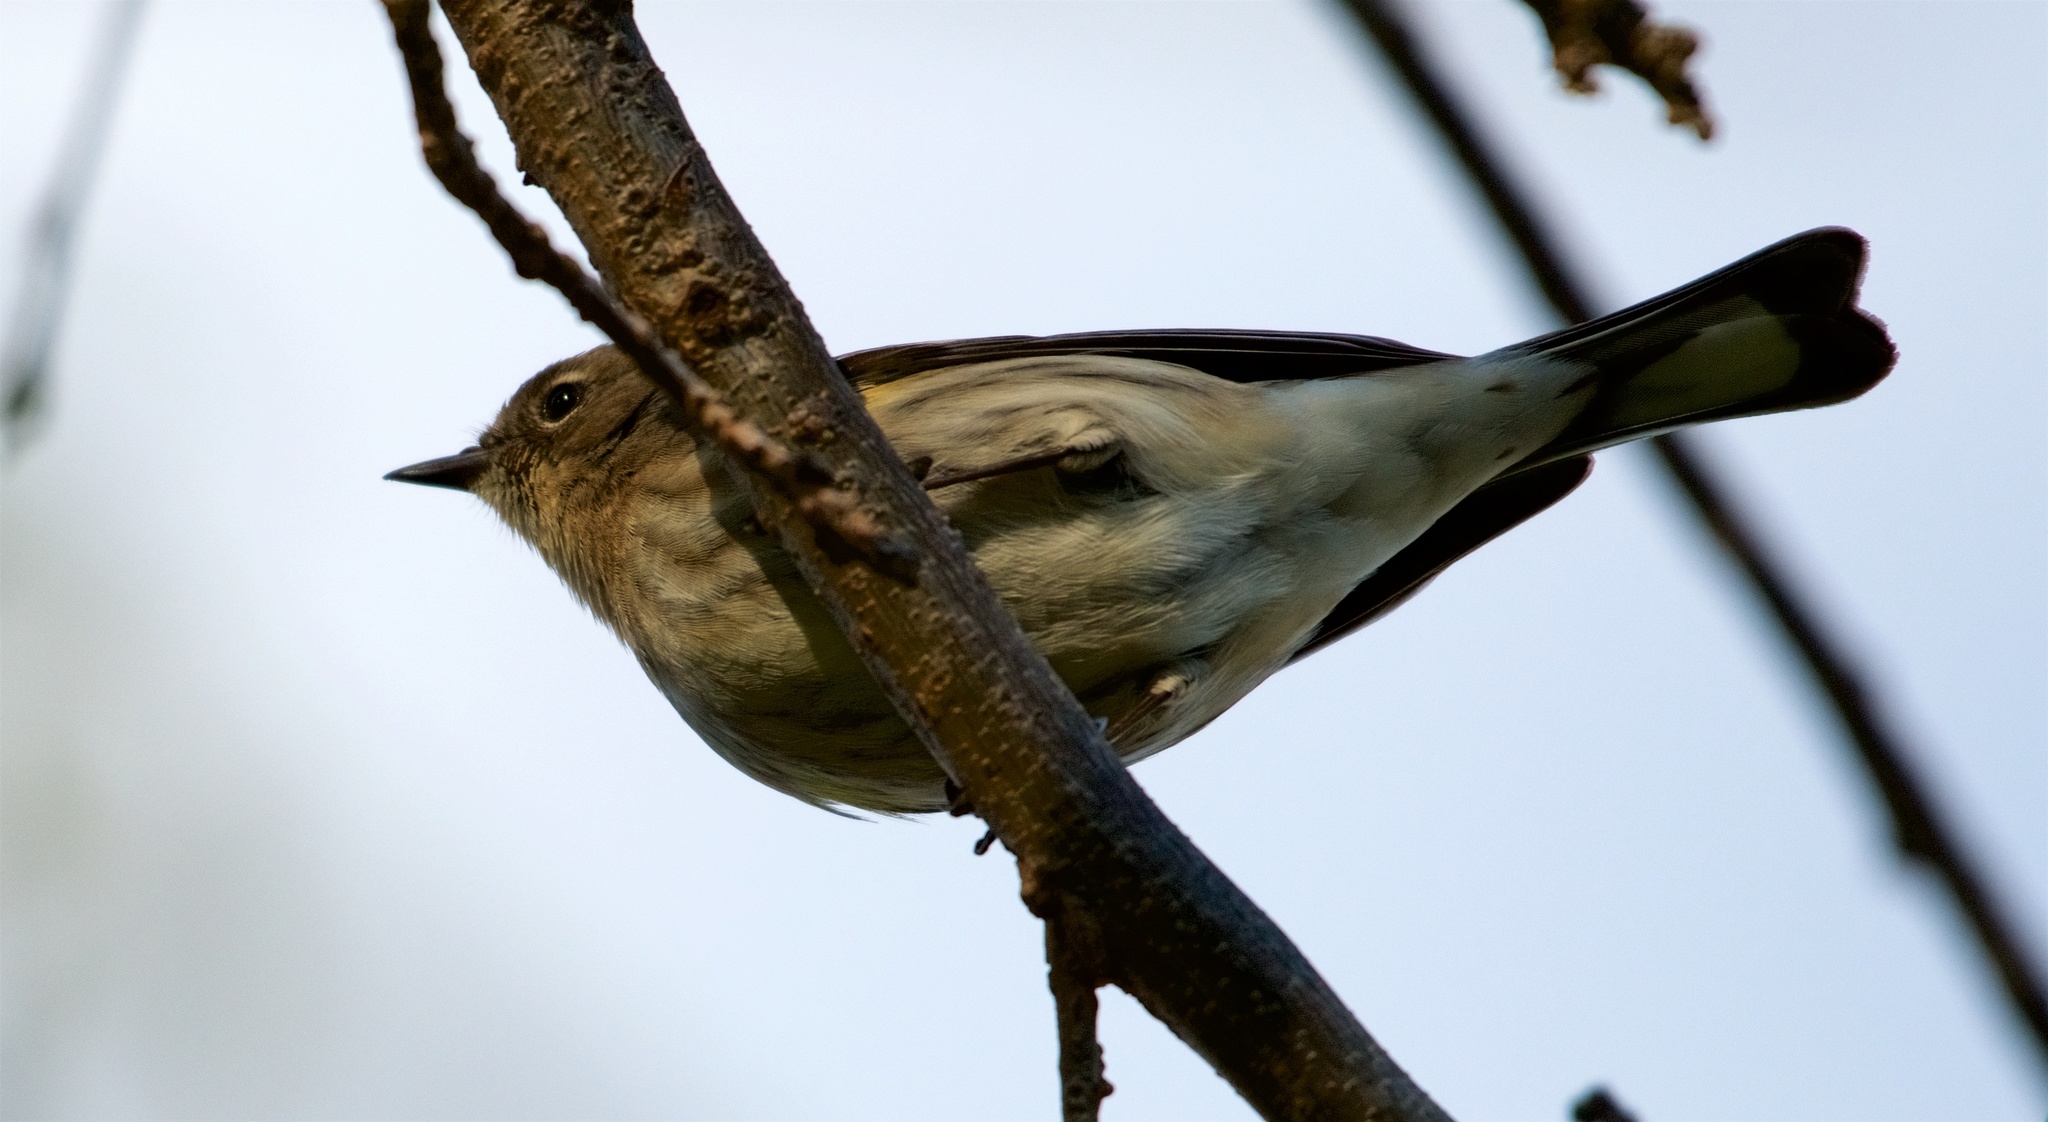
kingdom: Animalia
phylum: Chordata
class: Aves
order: Passeriformes
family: Parulidae
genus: Setophaga
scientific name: Setophaga coronata
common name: Myrtle warbler
